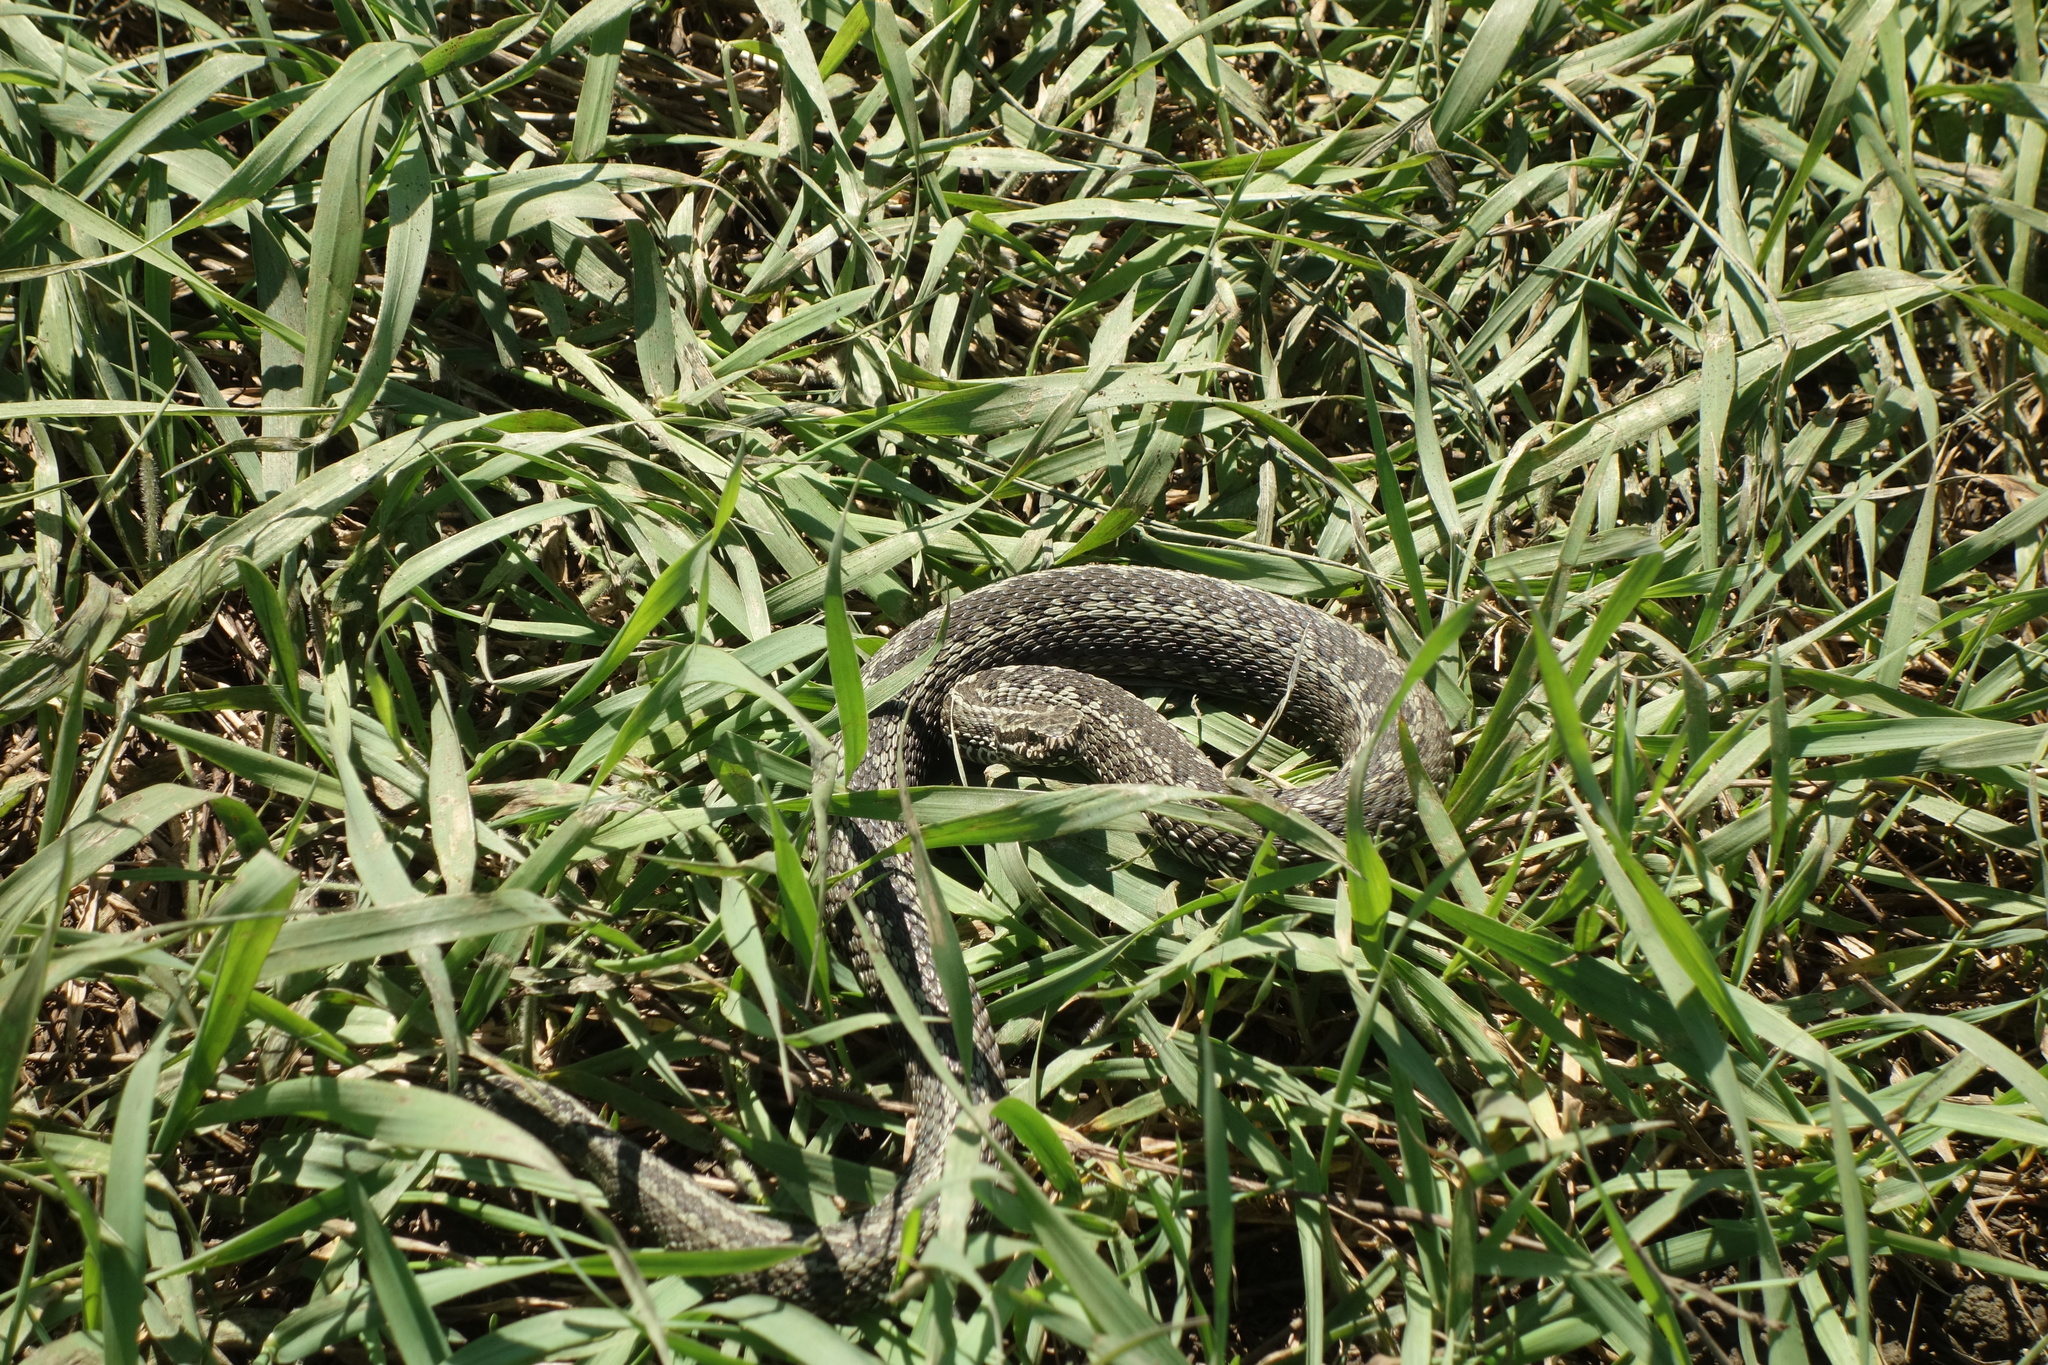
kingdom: Animalia
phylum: Chordata
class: Squamata
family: Viperidae
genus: Vipera
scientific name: Vipera renardi
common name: Eastern steppe viper
